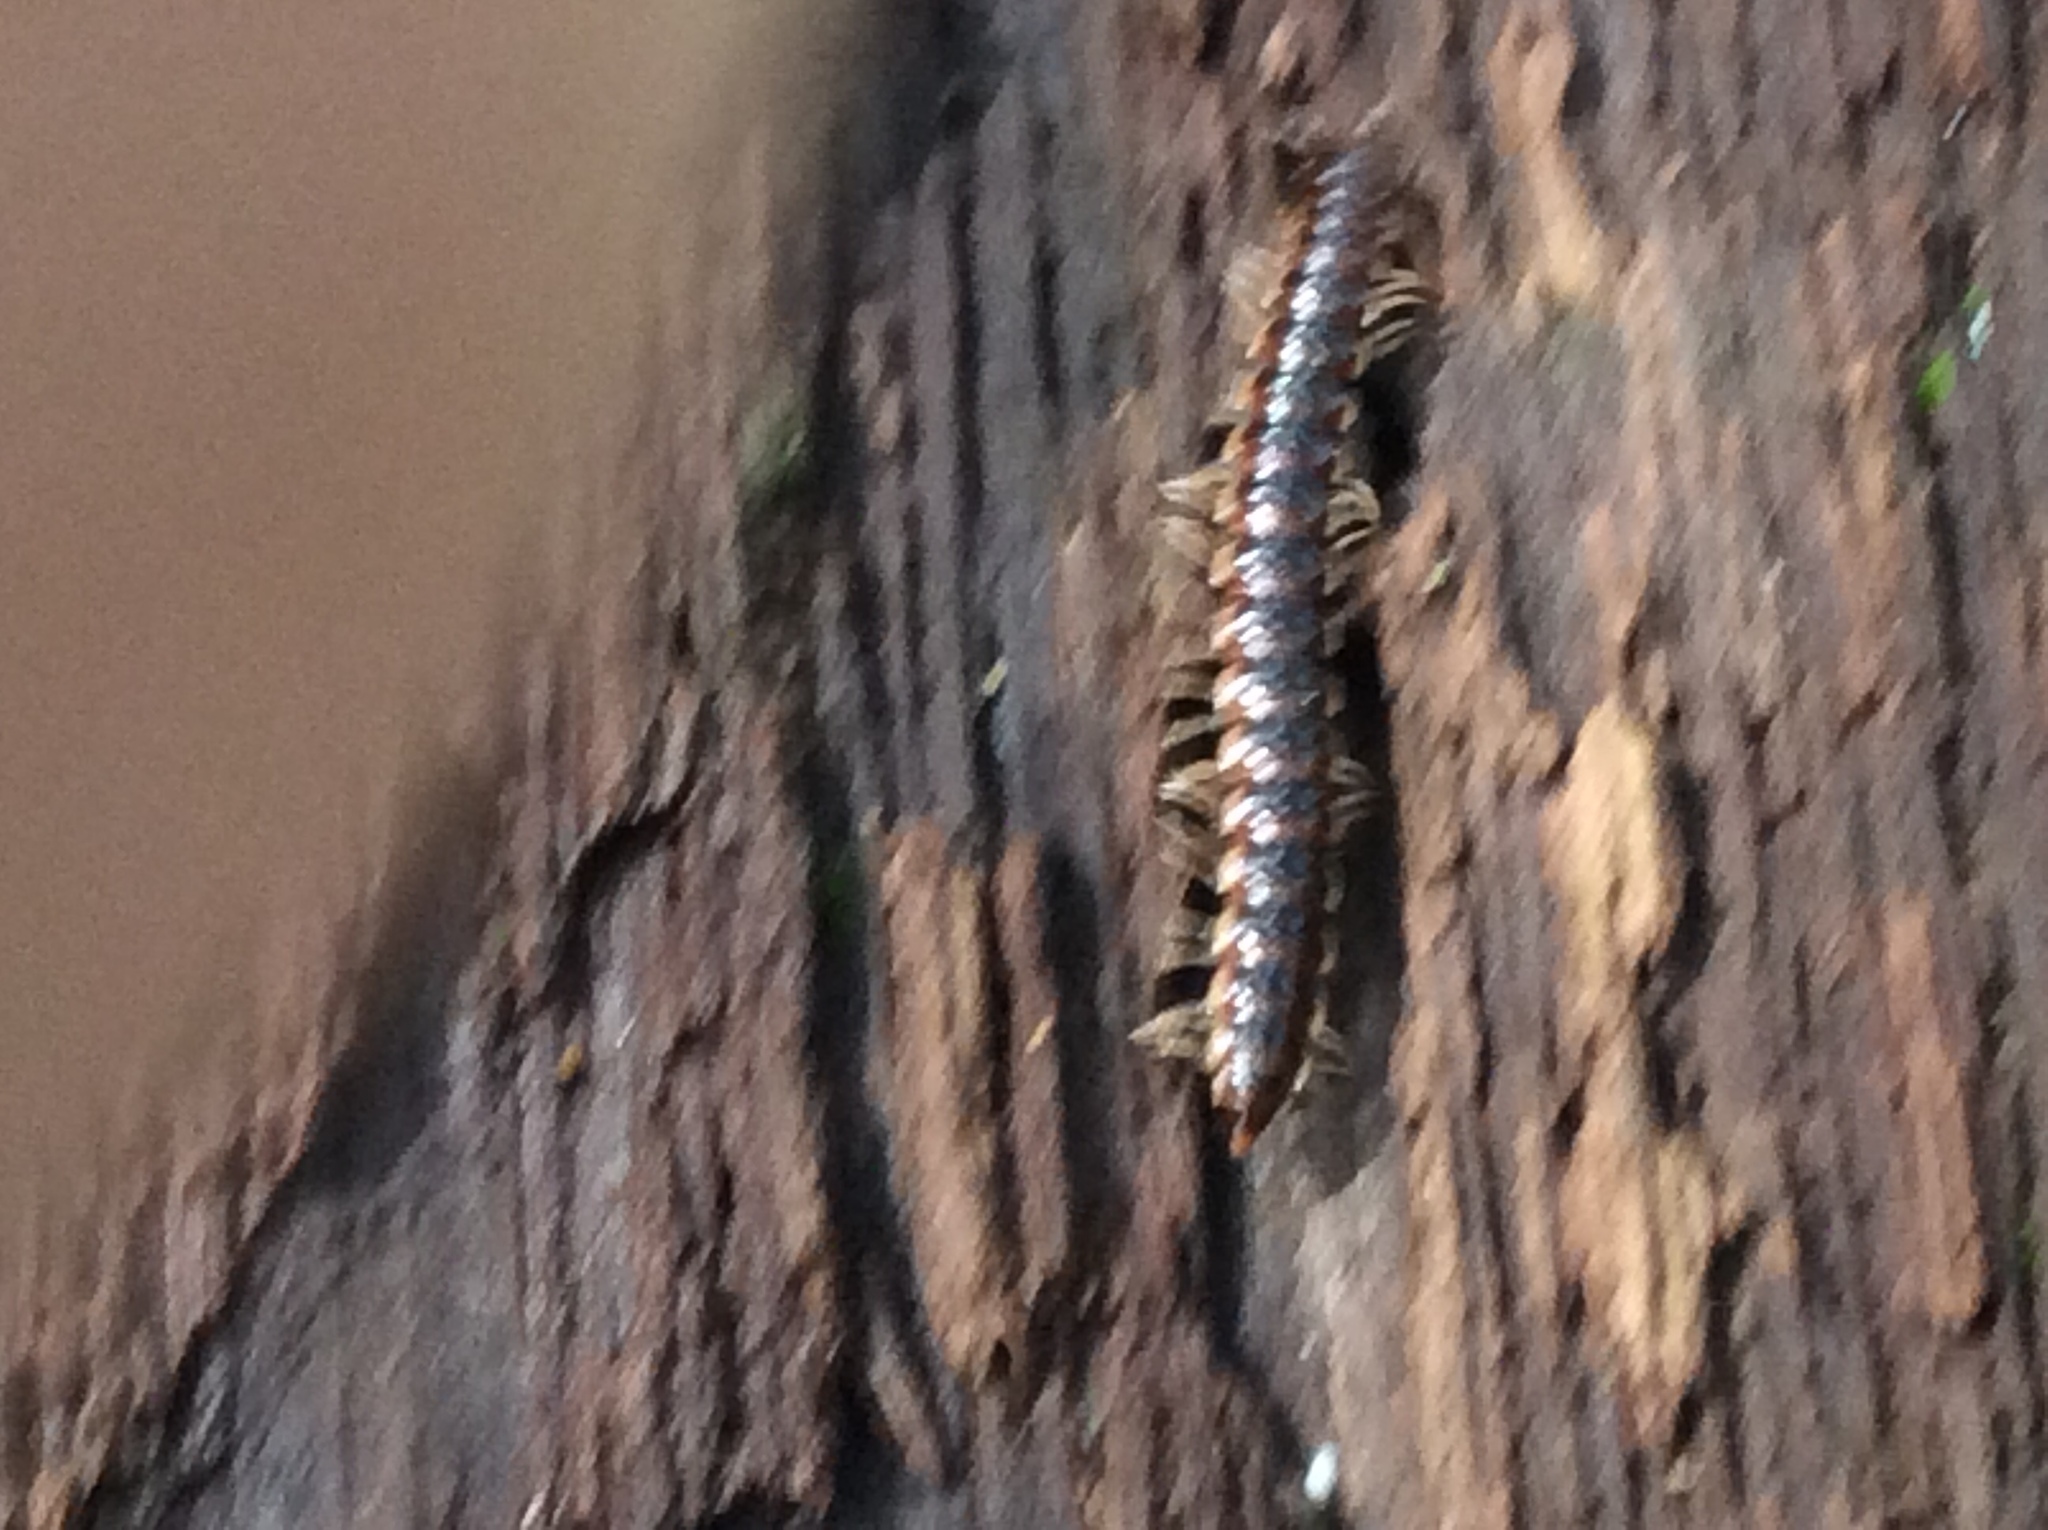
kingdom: Animalia
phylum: Arthropoda
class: Diplopoda
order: Polydesmida
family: Paradoxosomatidae
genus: Oxidus
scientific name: Oxidus gracilis
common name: Greenhouse millipede
